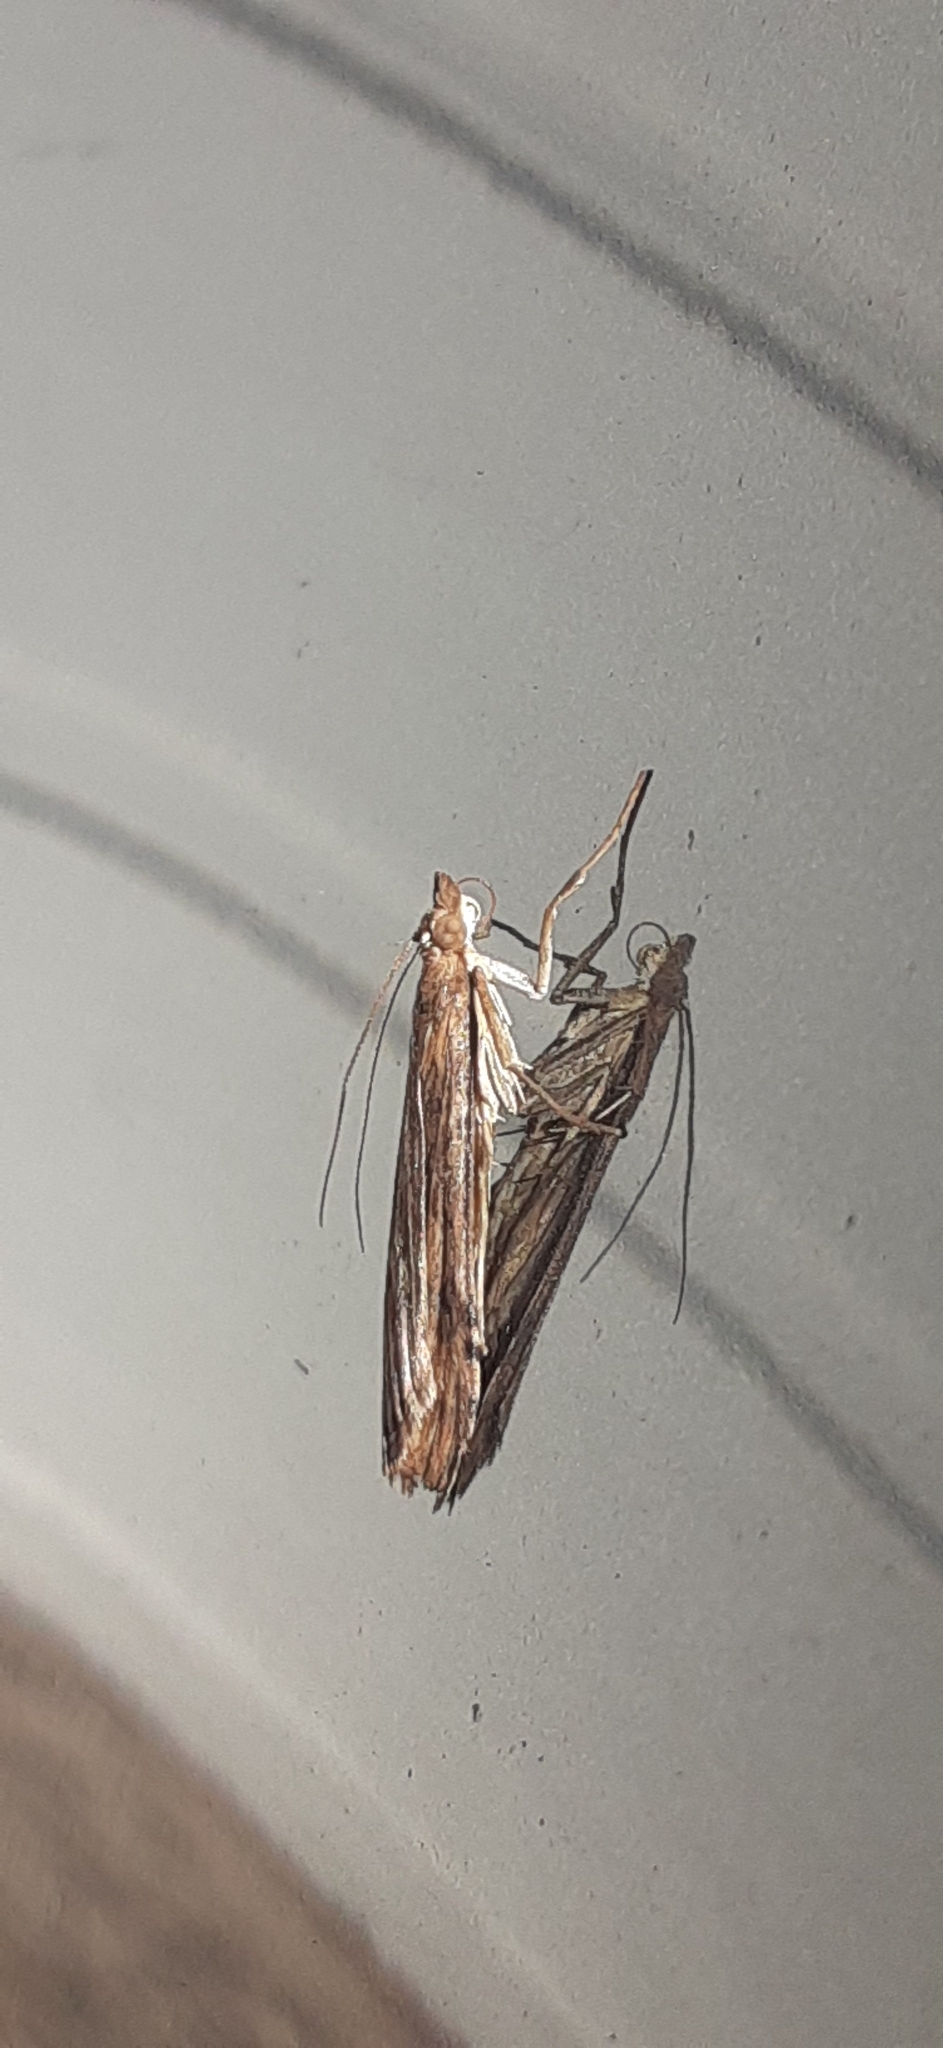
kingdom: Animalia
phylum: Arthropoda
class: Insecta
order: Lepidoptera
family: Crambidae
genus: Nomophila
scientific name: Nomophila nearctica
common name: American rush veneer
